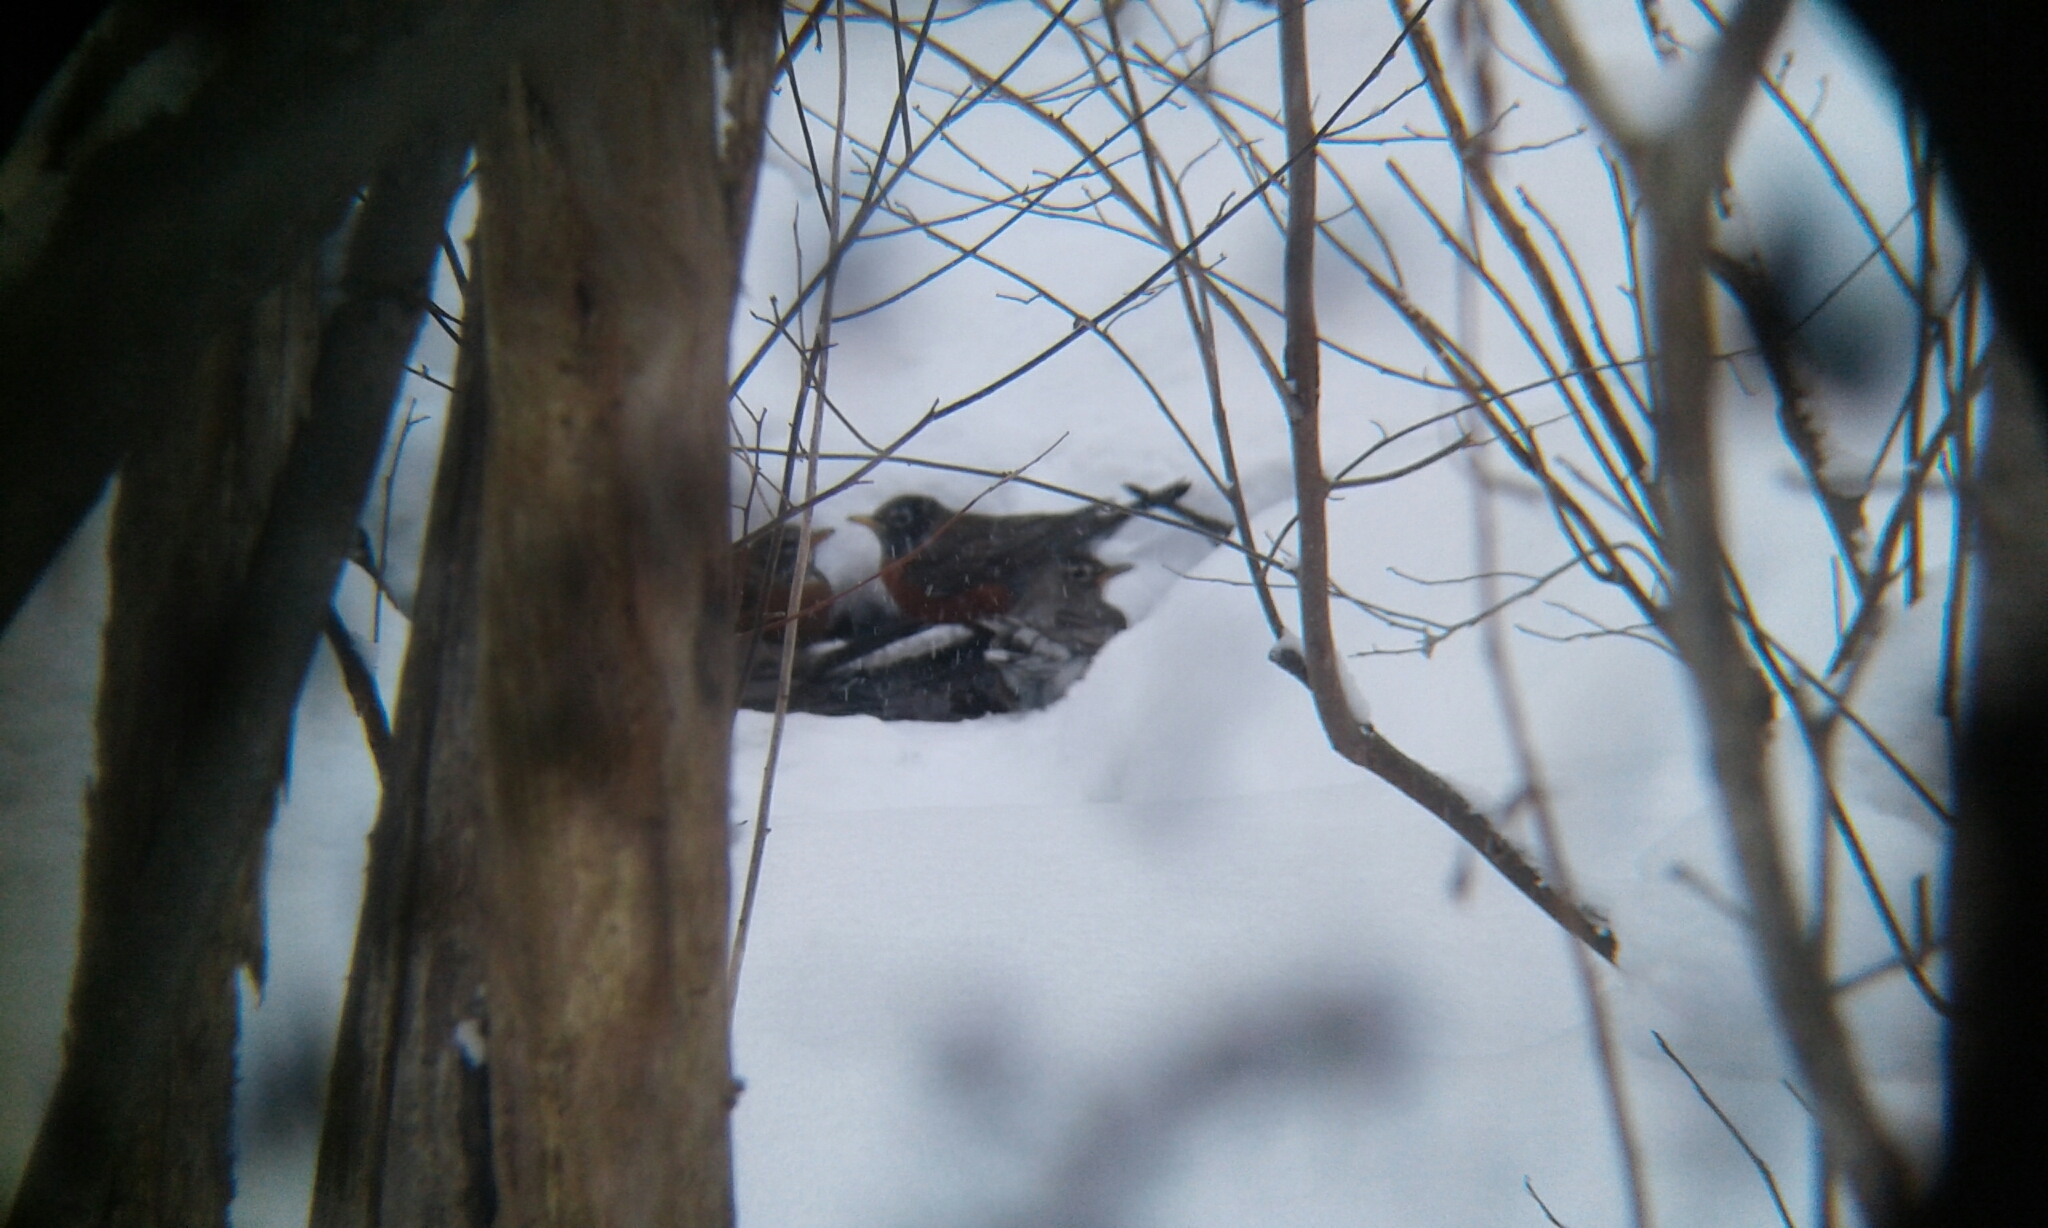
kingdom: Animalia
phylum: Chordata
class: Aves
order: Passeriformes
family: Turdidae
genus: Turdus
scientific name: Turdus migratorius
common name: American robin
